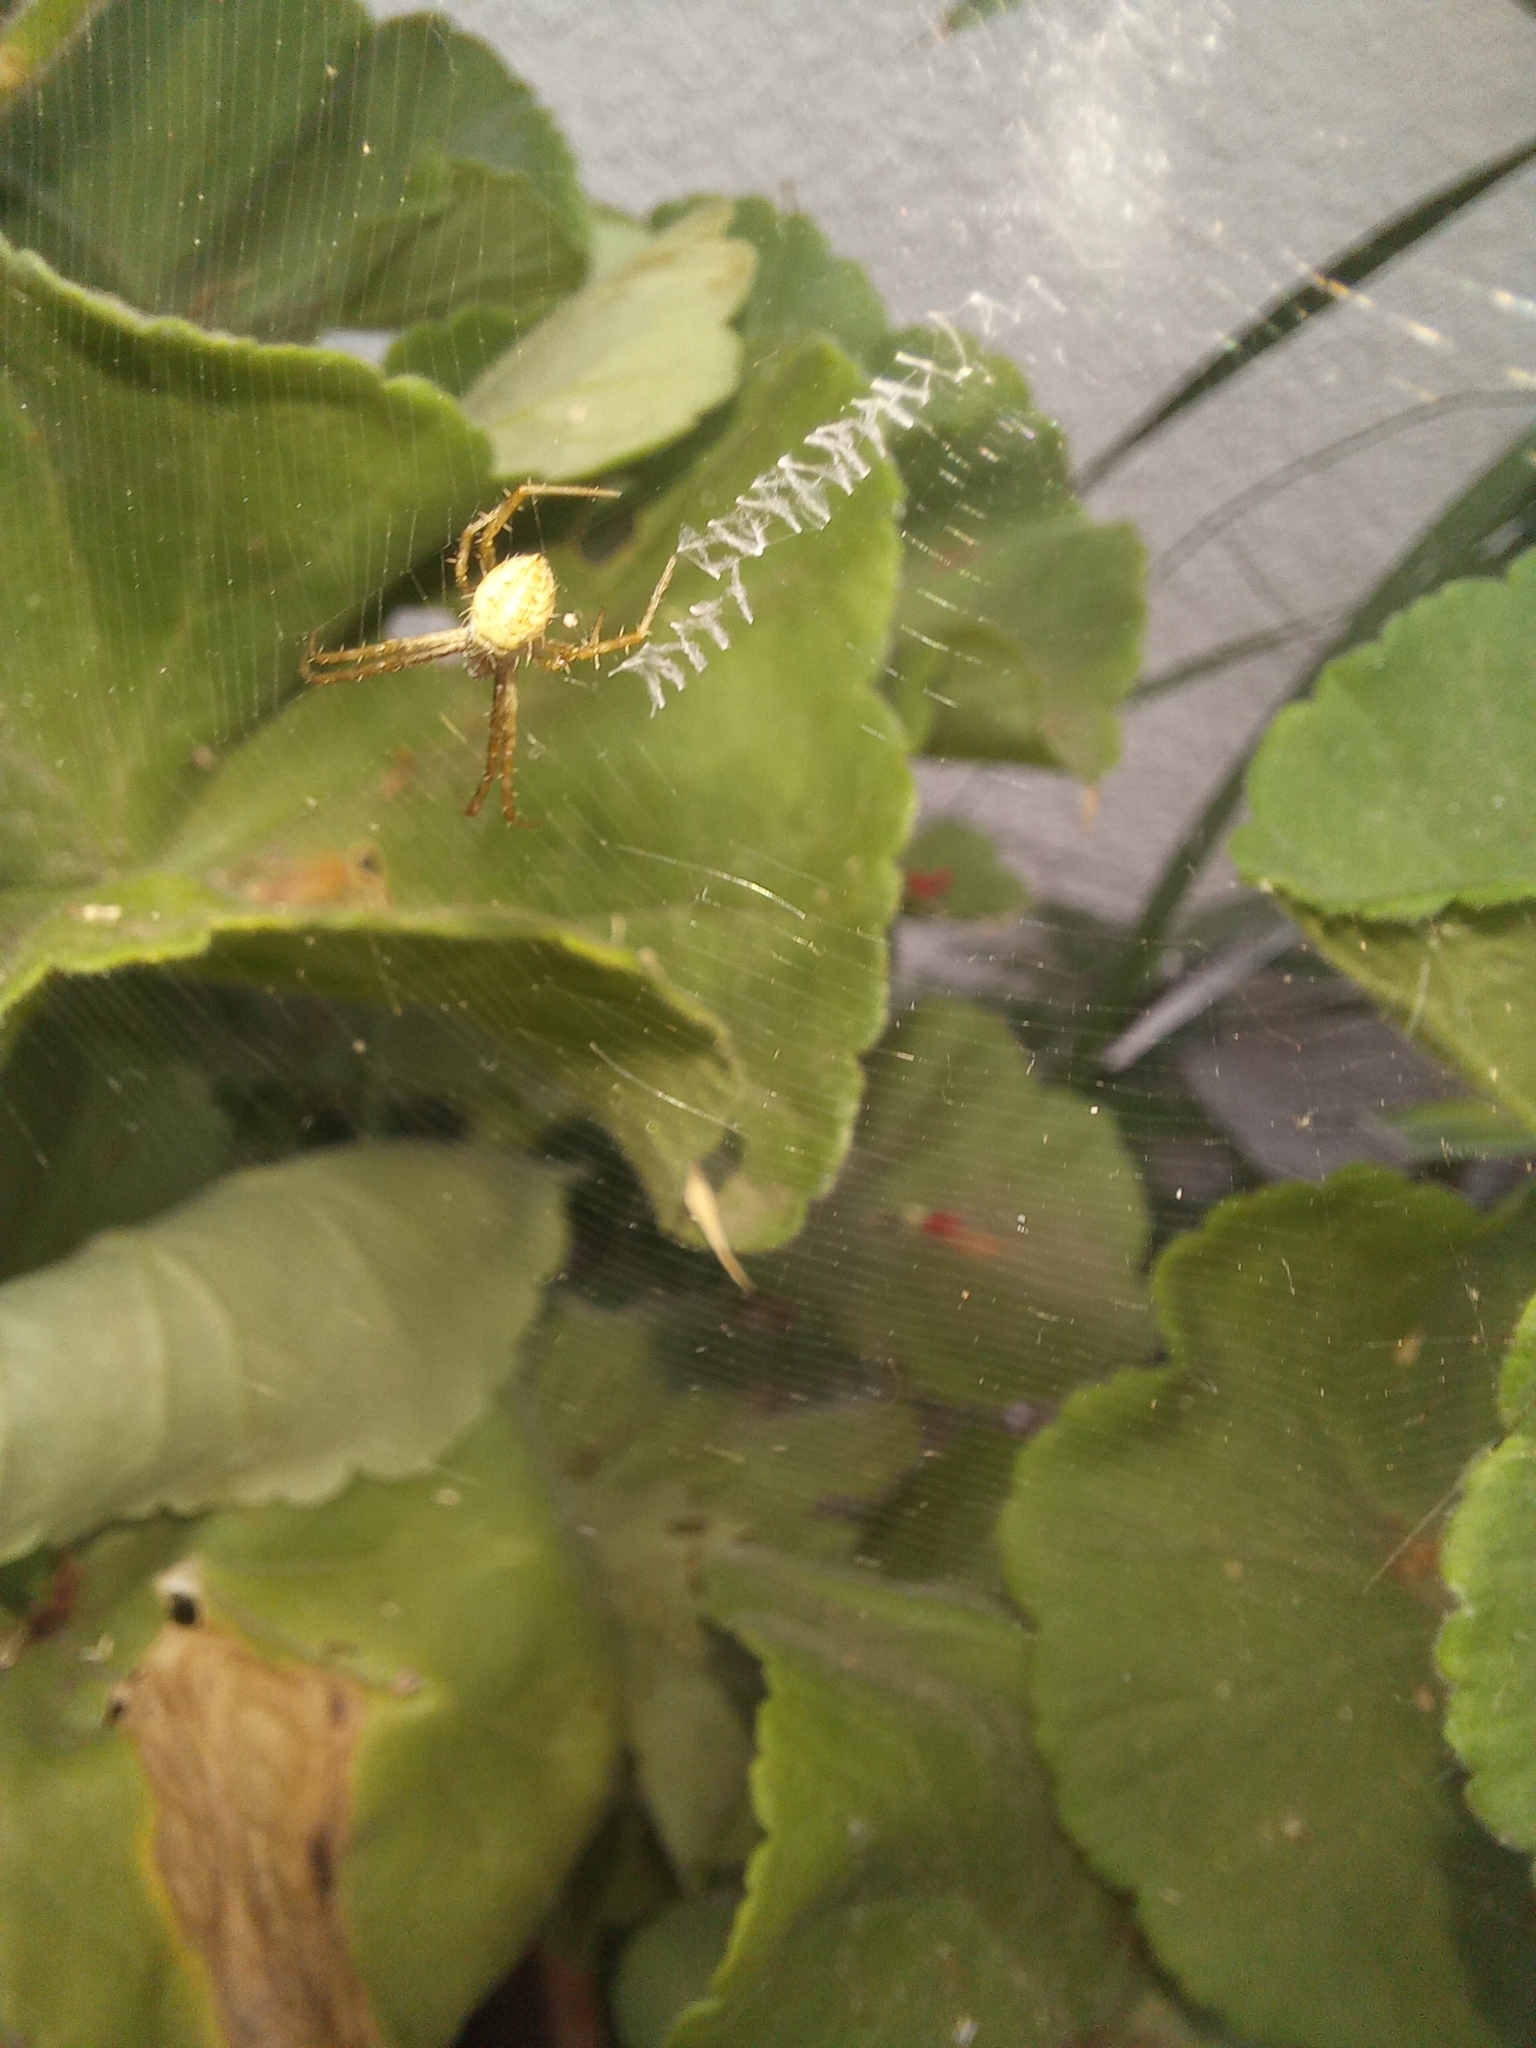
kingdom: Animalia
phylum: Arthropoda
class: Arachnida
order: Araneae
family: Araneidae
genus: Argiope
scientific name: Argiope argentata
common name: Orb weavers
